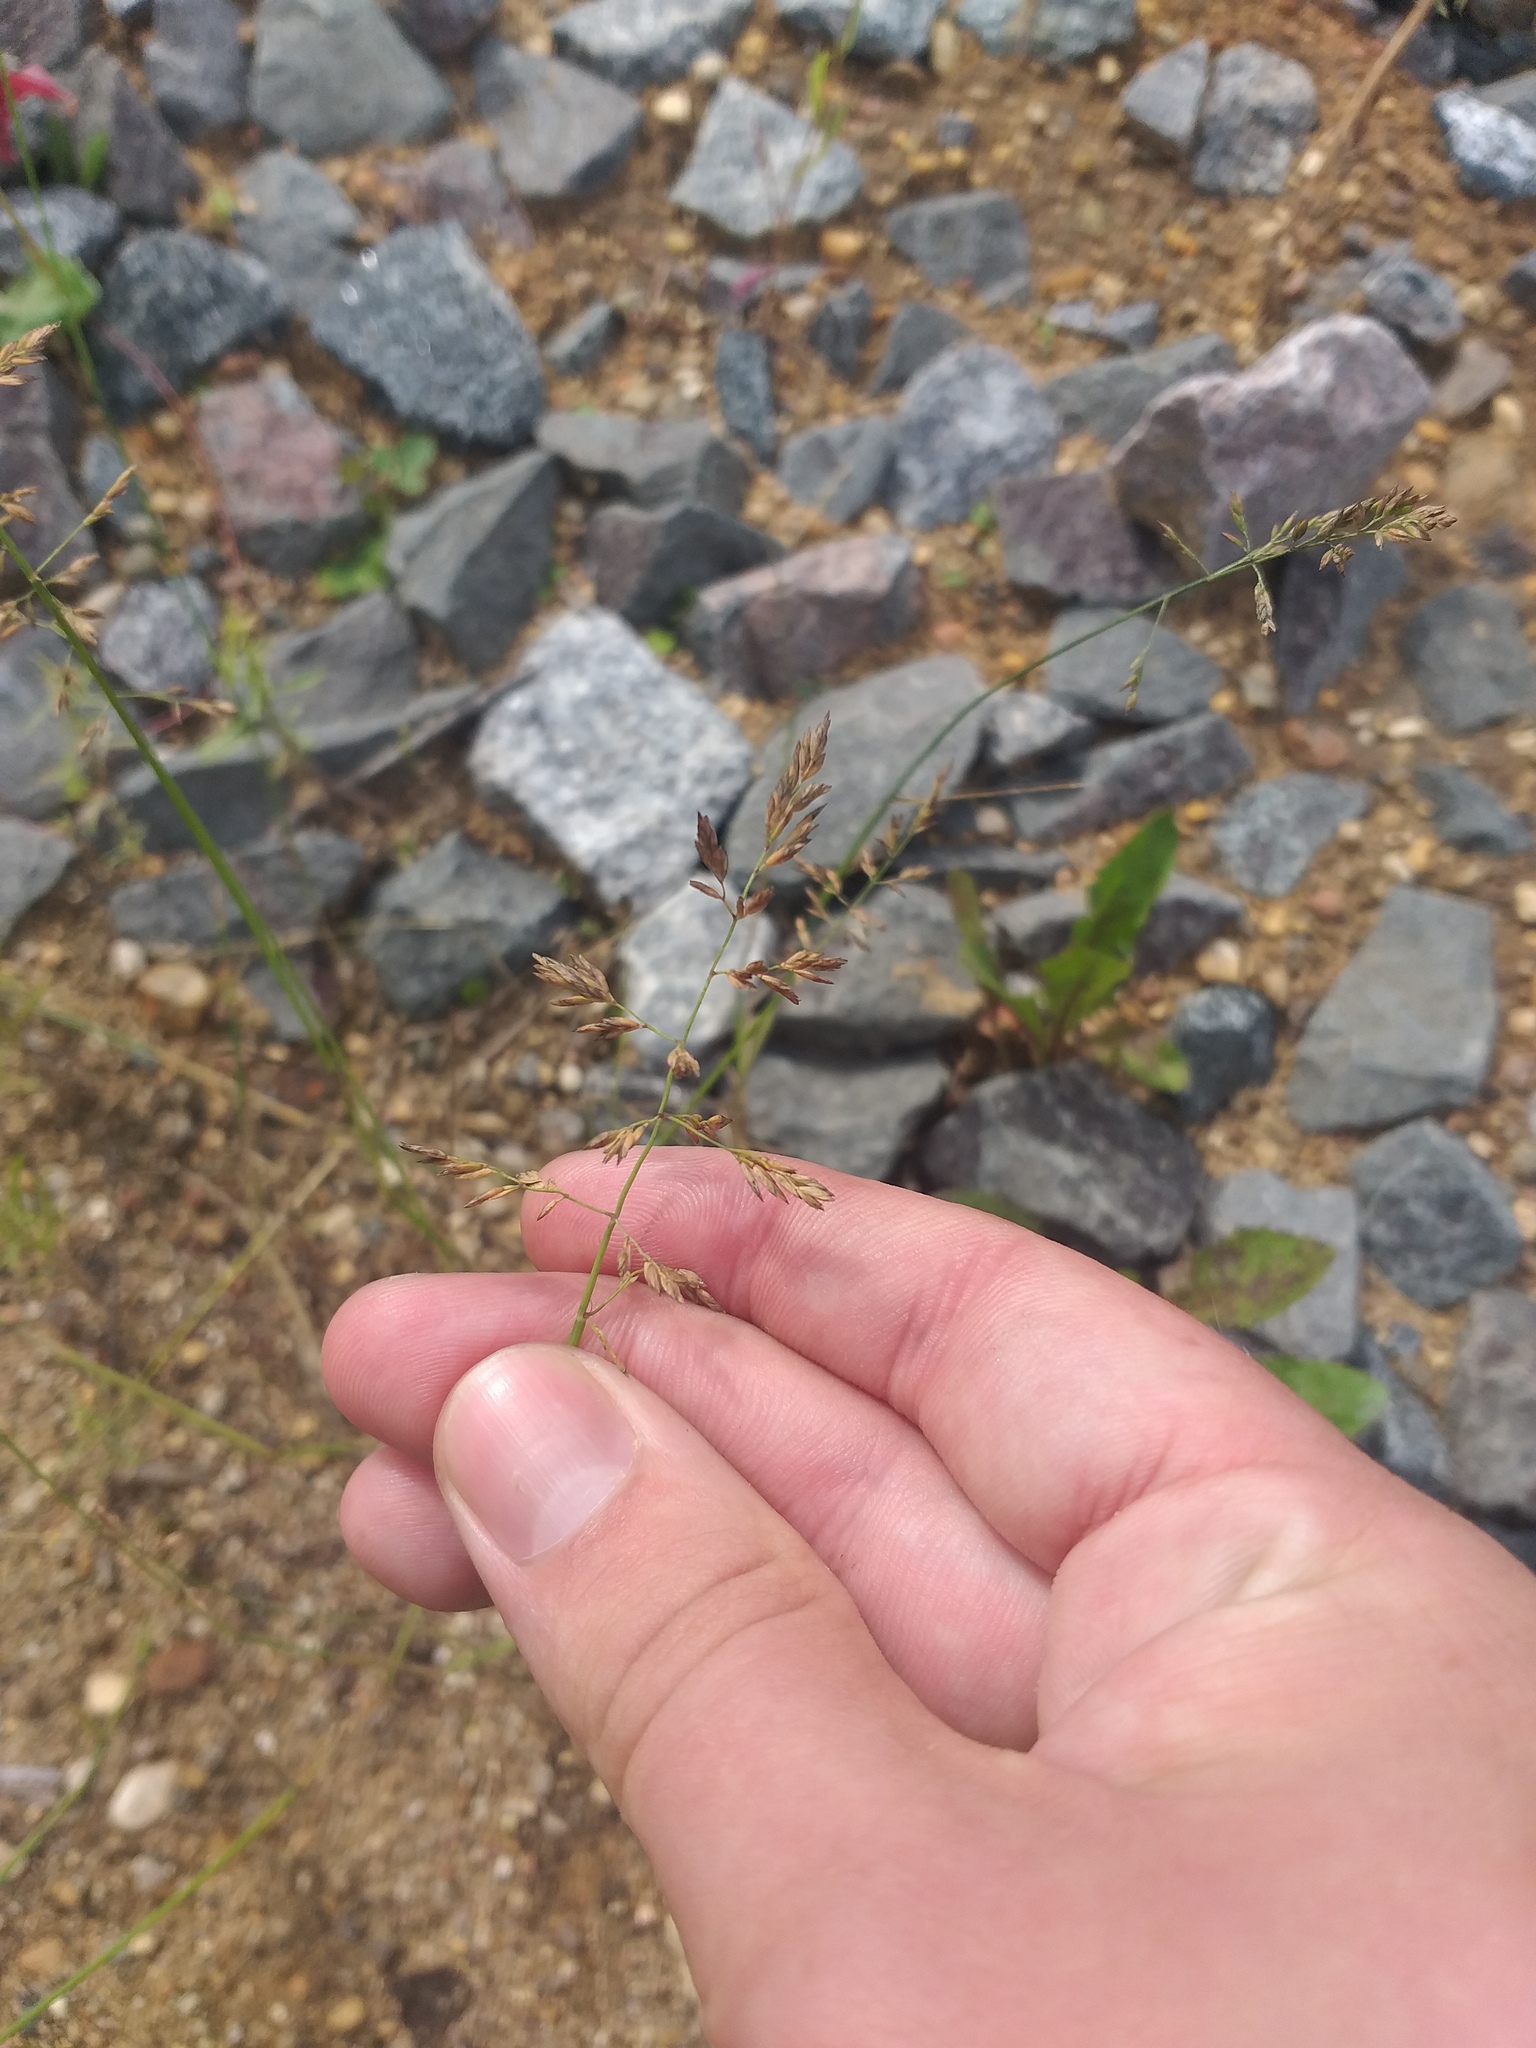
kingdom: Plantae
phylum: Tracheophyta
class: Liliopsida
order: Poales
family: Poaceae
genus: Poa
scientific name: Poa compressa
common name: Canada bluegrass
